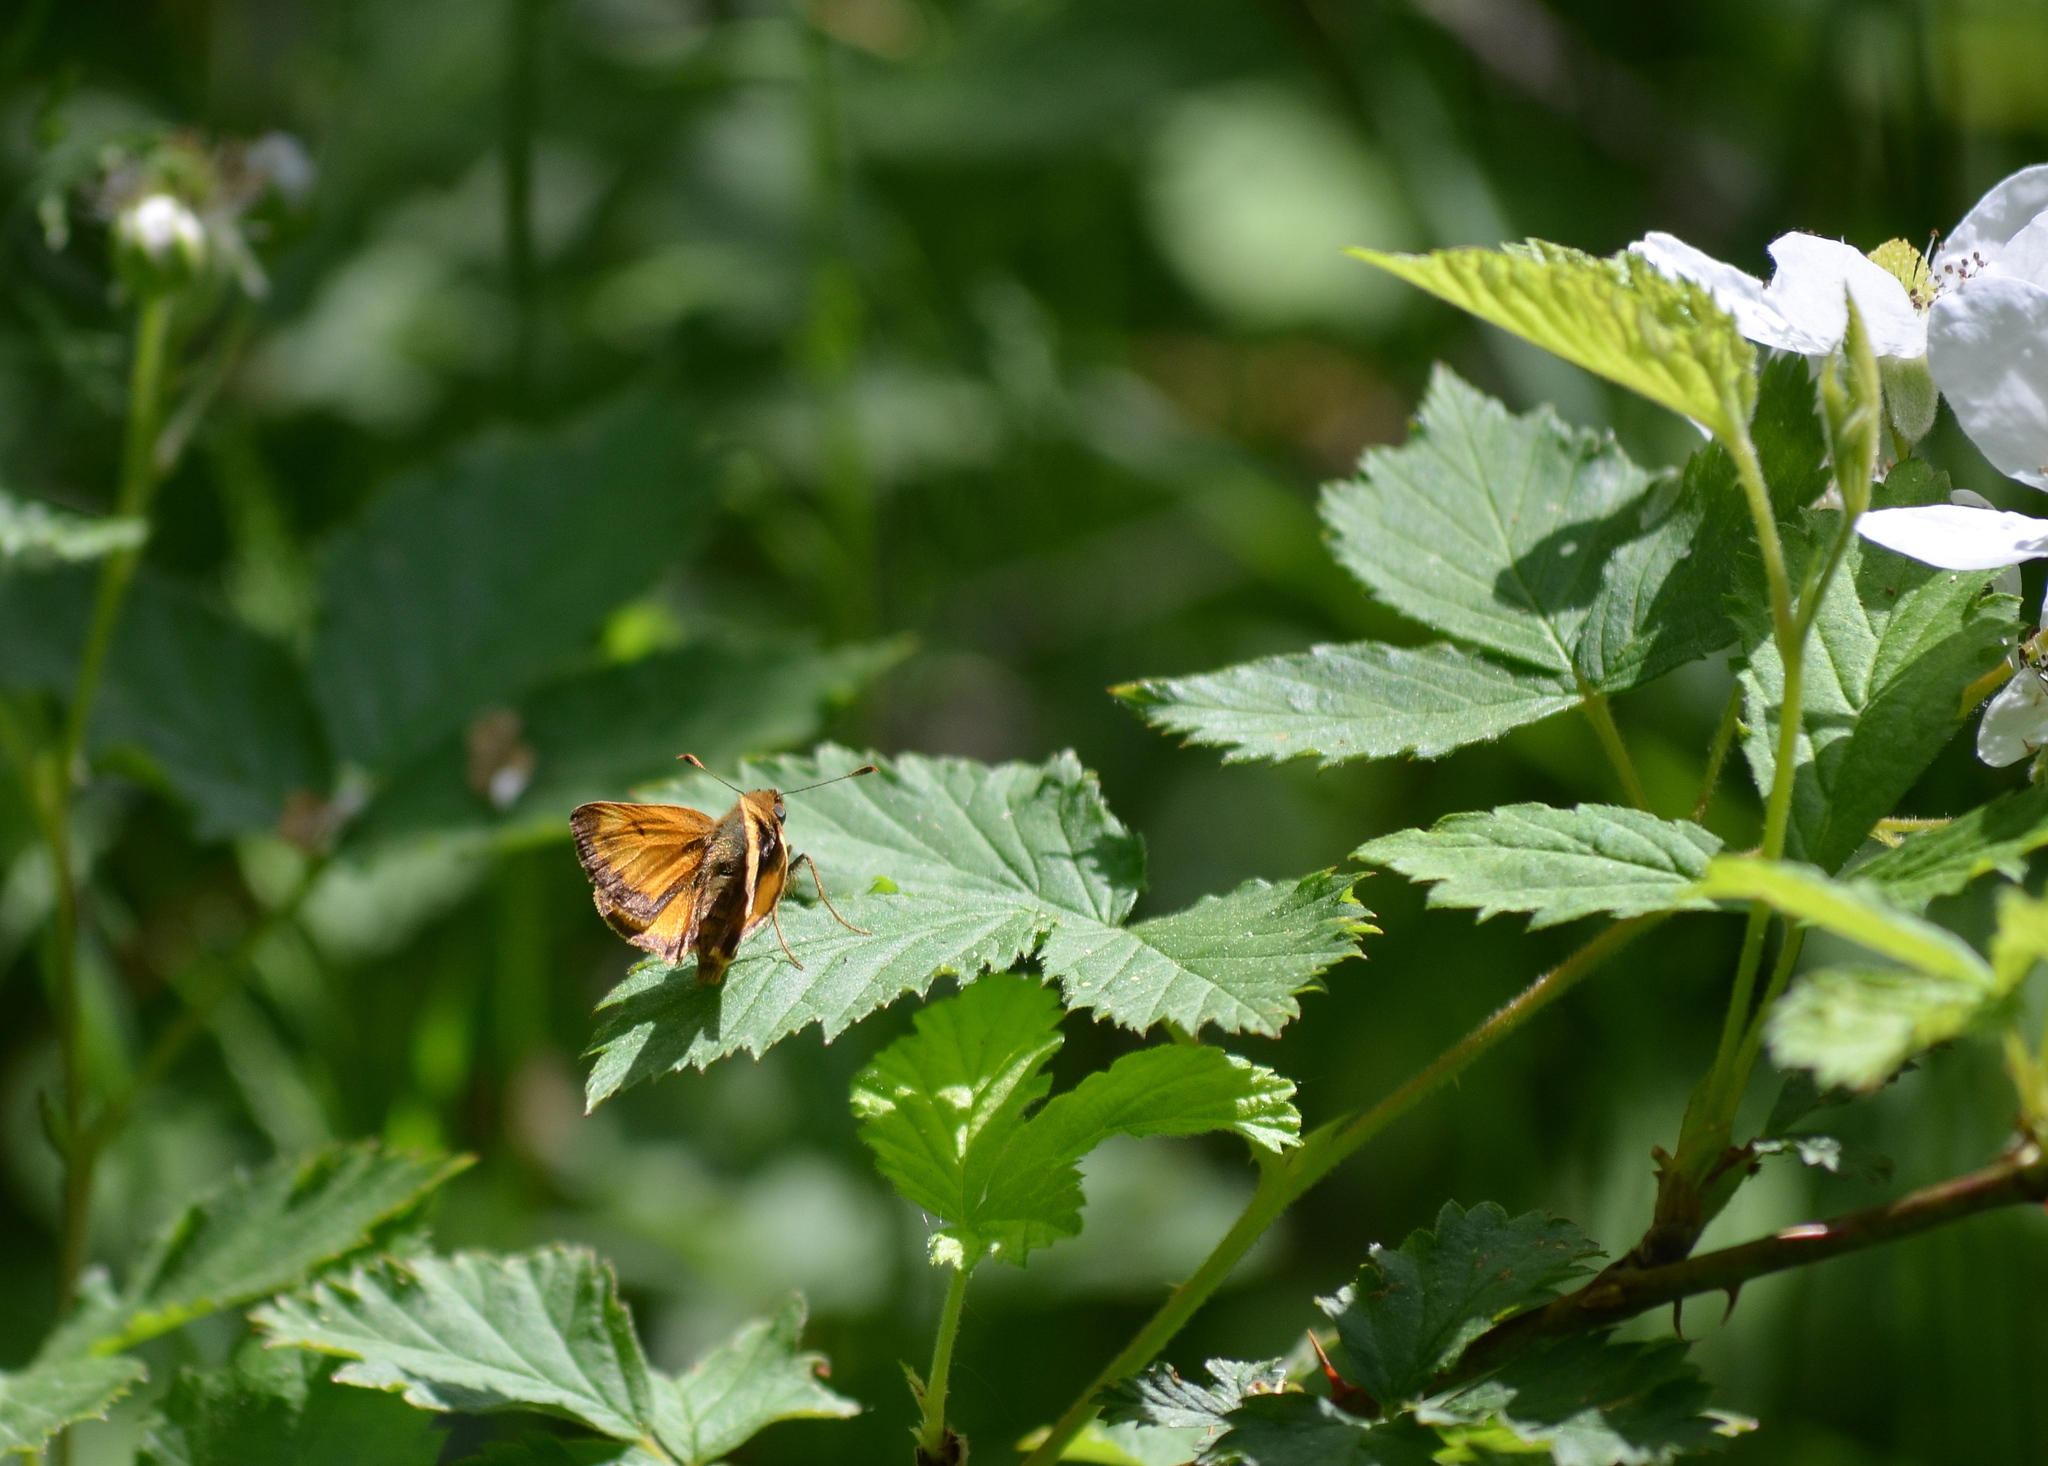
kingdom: Animalia
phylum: Arthropoda
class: Insecta
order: Lepidoptera
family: Hesperiidae
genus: Lon
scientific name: Lon zabulon
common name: Zabulon skipper
